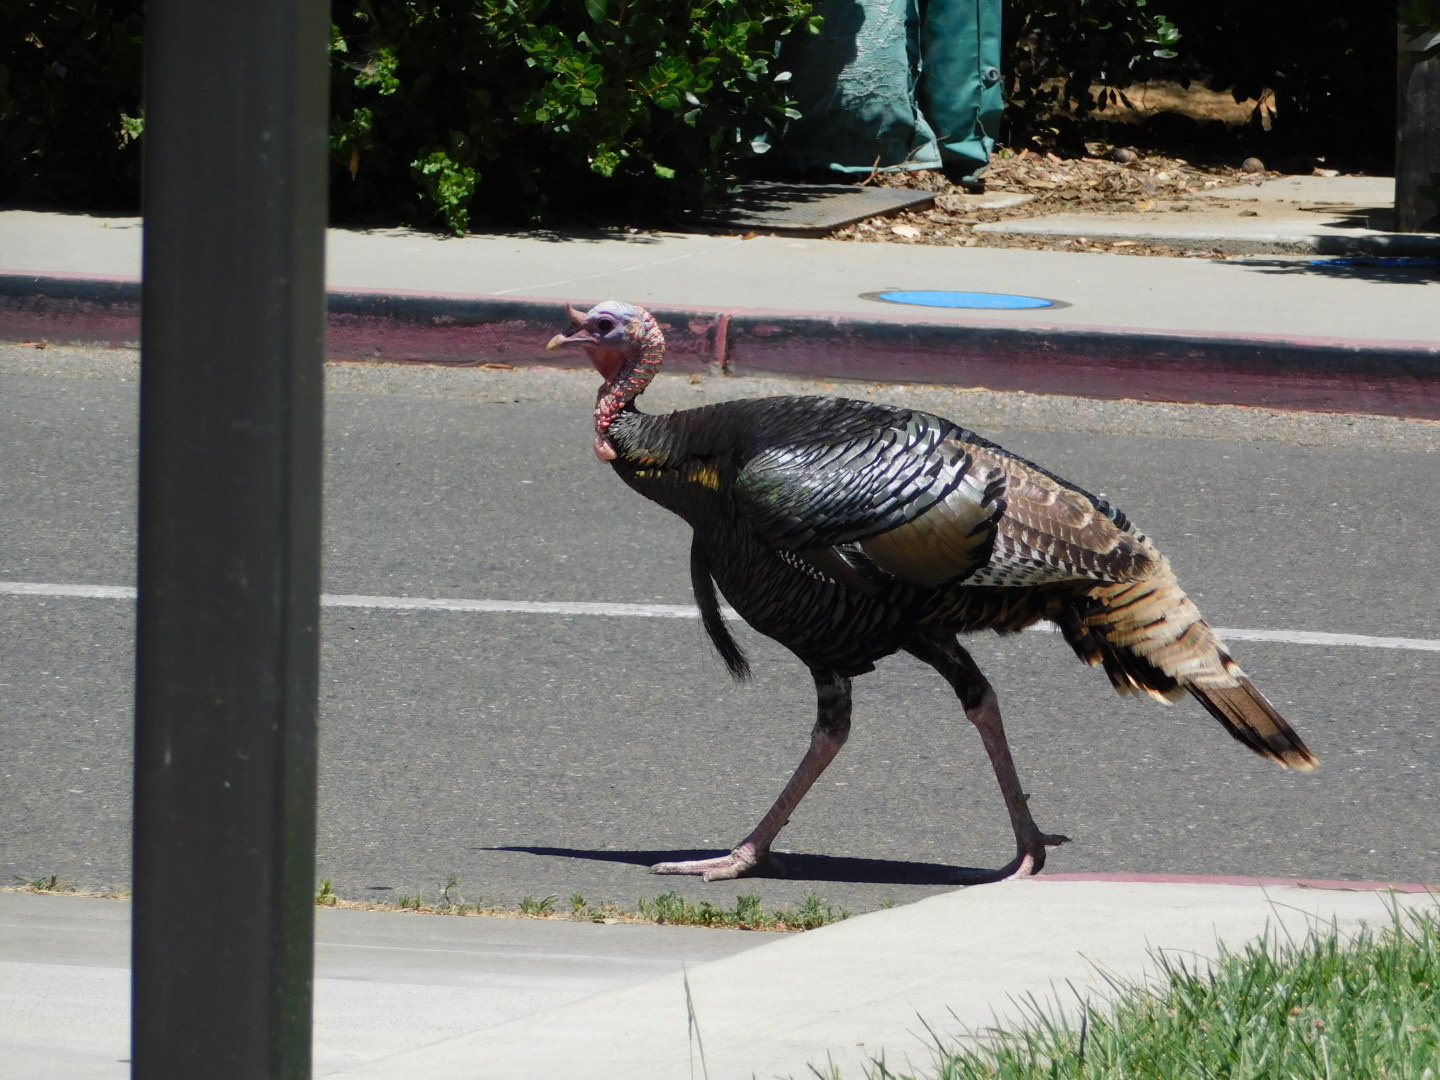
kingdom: Animalia
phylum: Chordata
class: Aves
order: Galliformes
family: Phasianidae
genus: Meleagris
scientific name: Meleagris gallopavo
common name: Wild turkey
